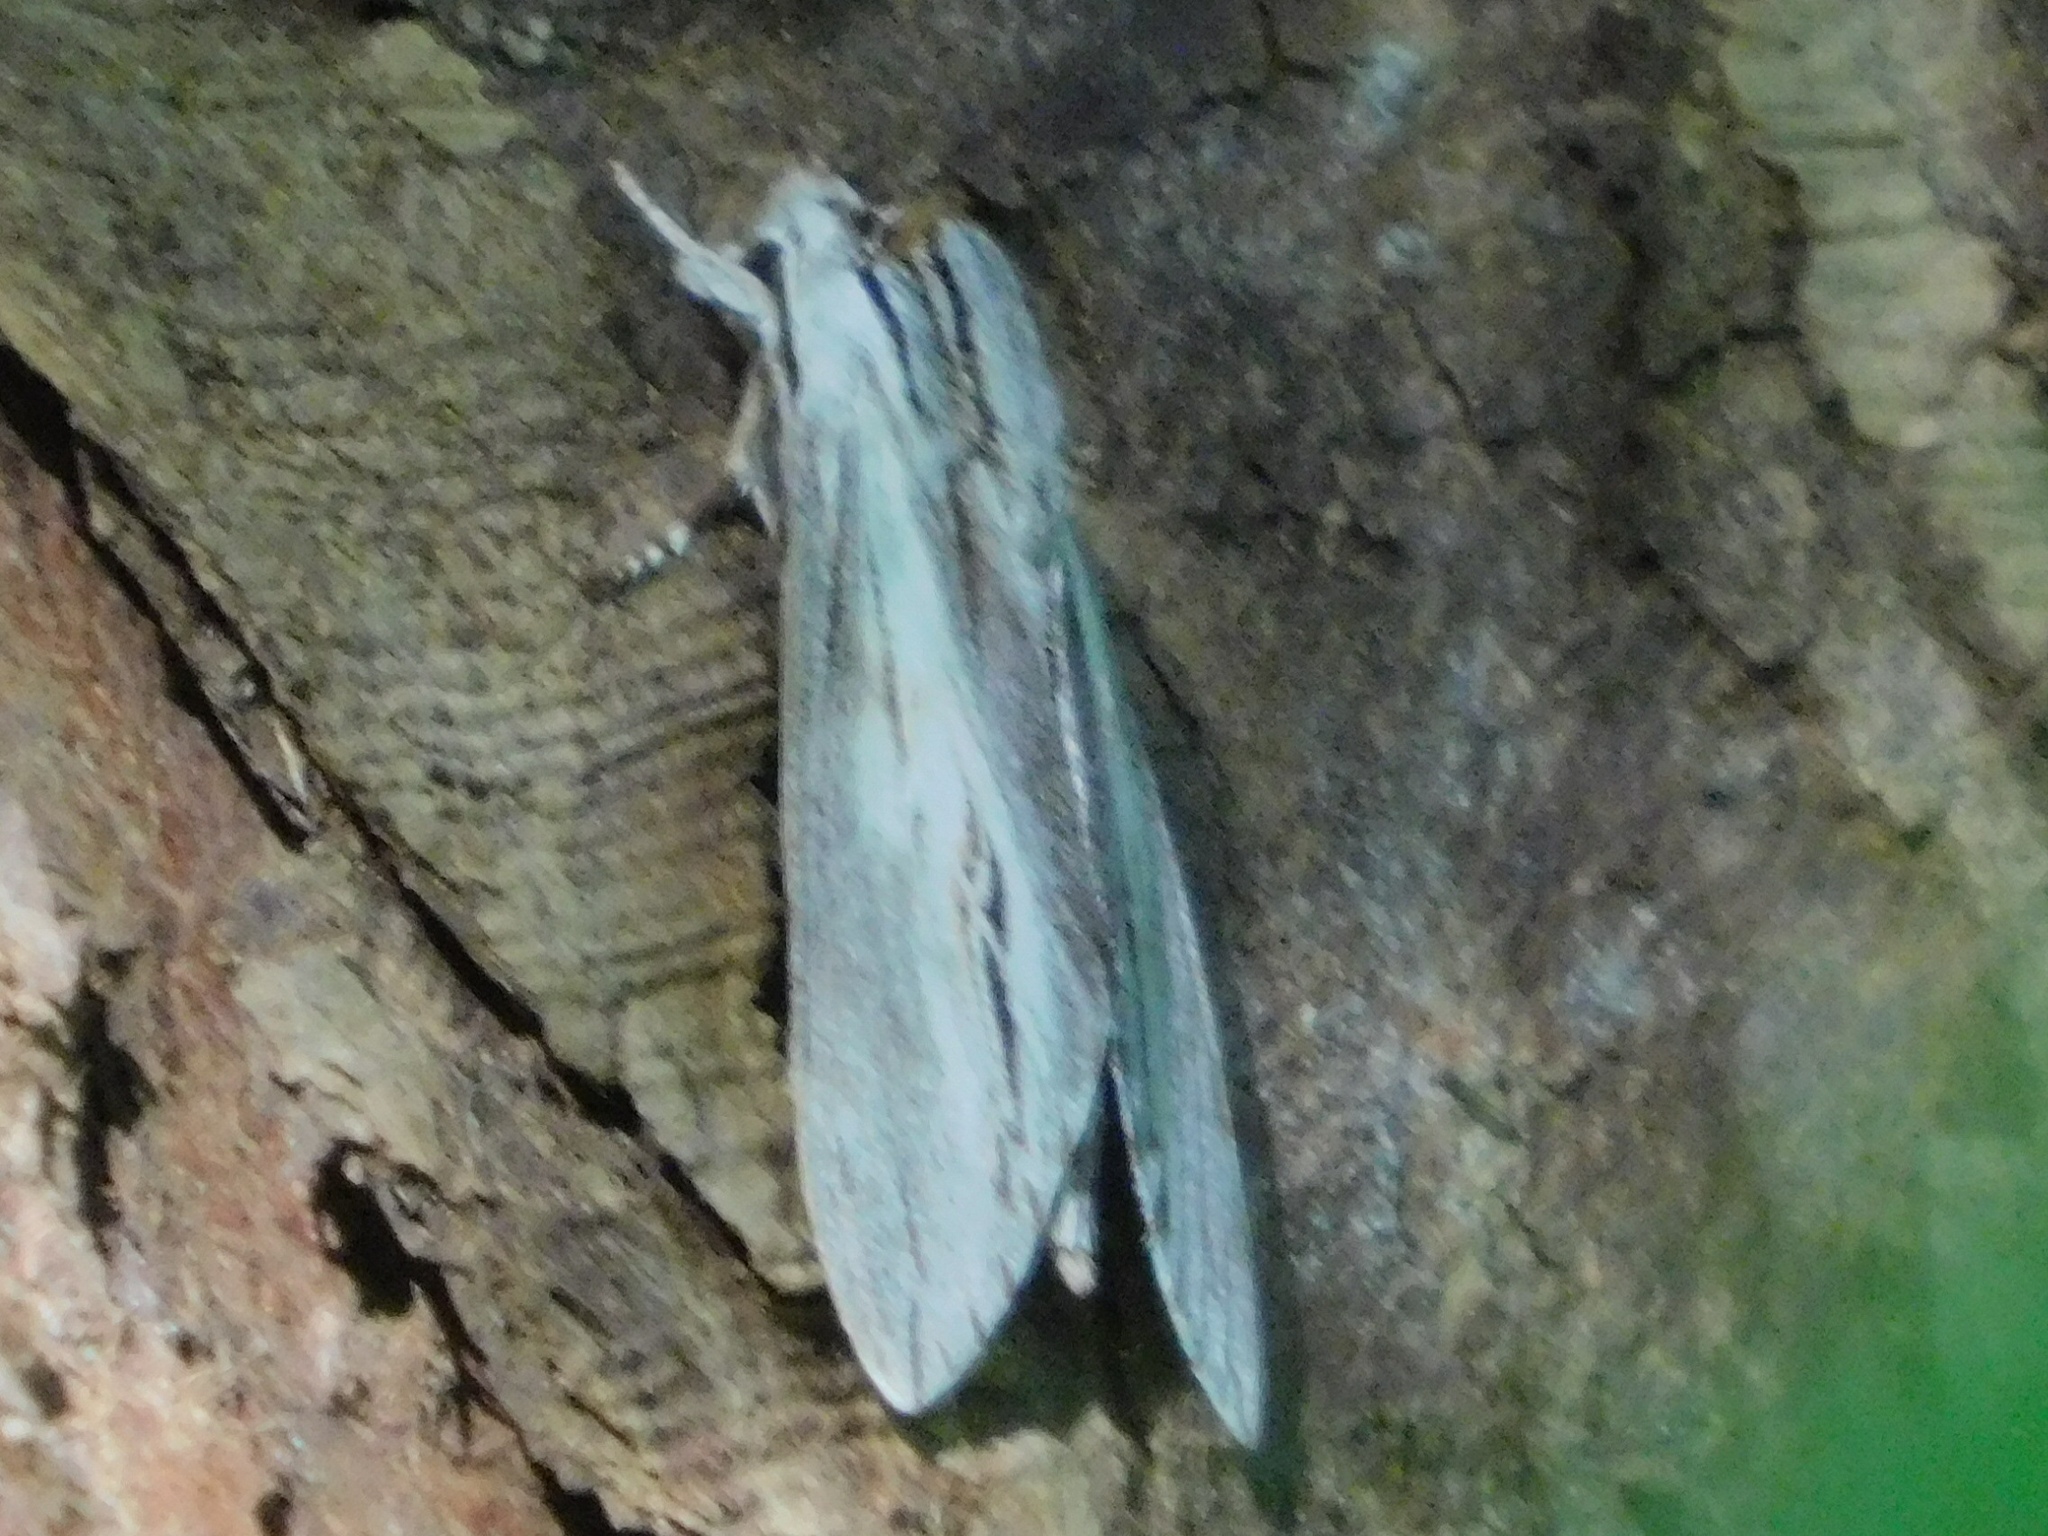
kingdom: Animalia
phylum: Arthropoda
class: Insecta
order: Lepidoptera
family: Sphingidae
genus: Isoparce
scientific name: Isoparce cupressi
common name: Cypress sphinx
